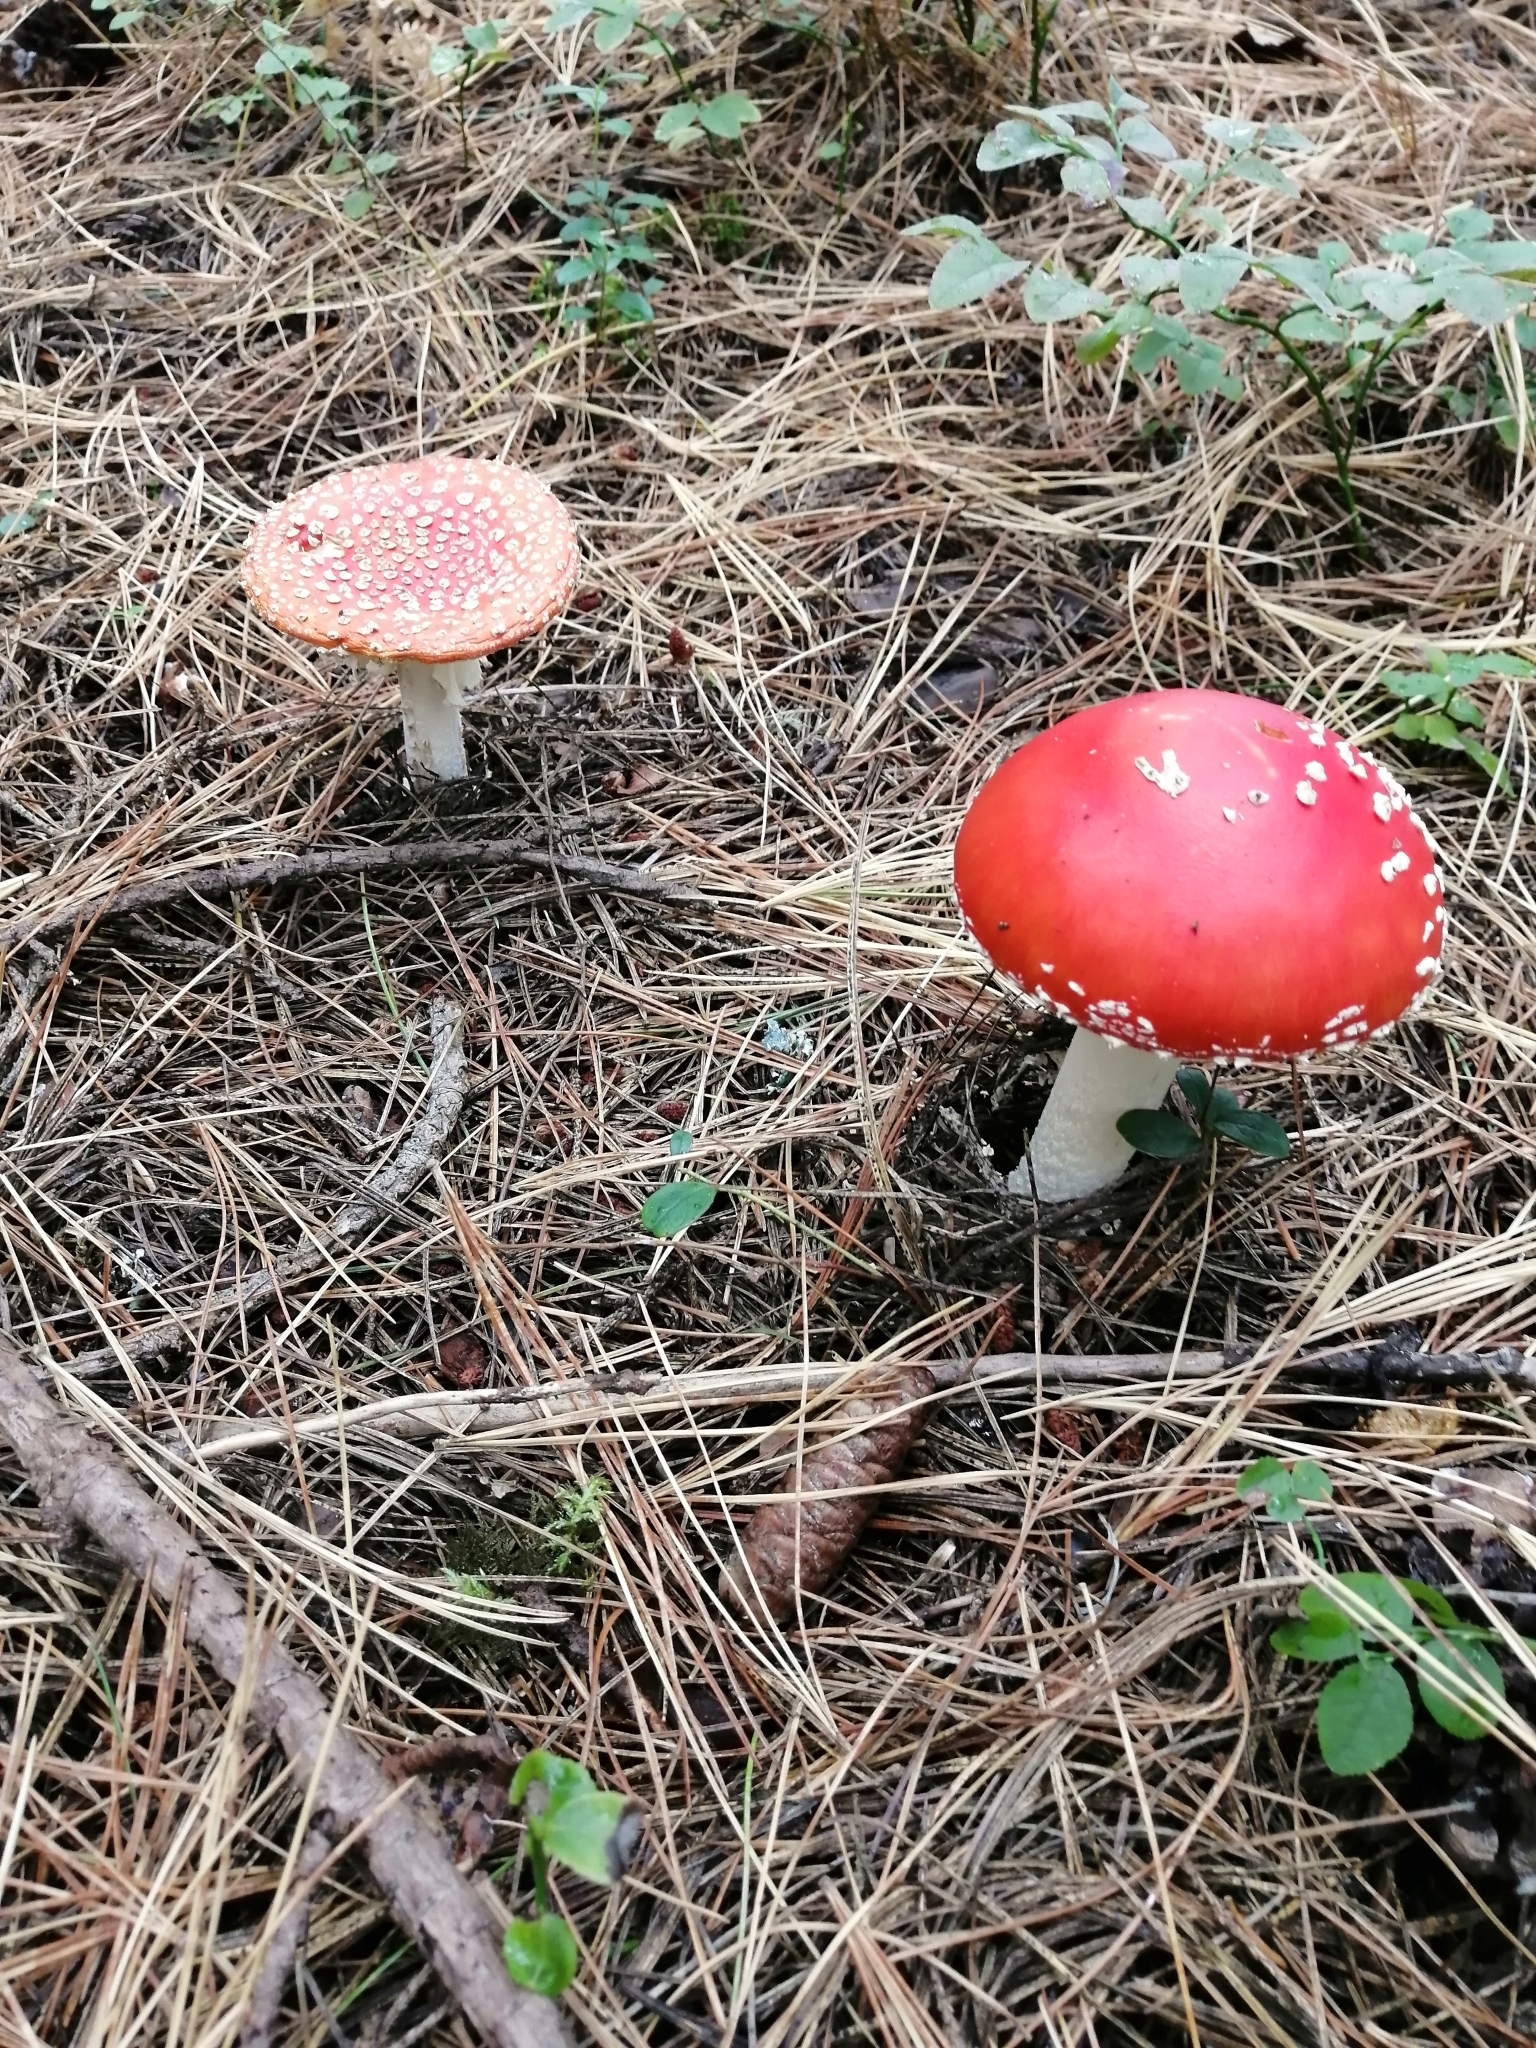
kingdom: Fungi
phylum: Basidiomycota
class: Agaricomycetes
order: Agaricales
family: Amanitaceae
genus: Amanita
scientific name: Amanita muscaria
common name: Fly agaric
